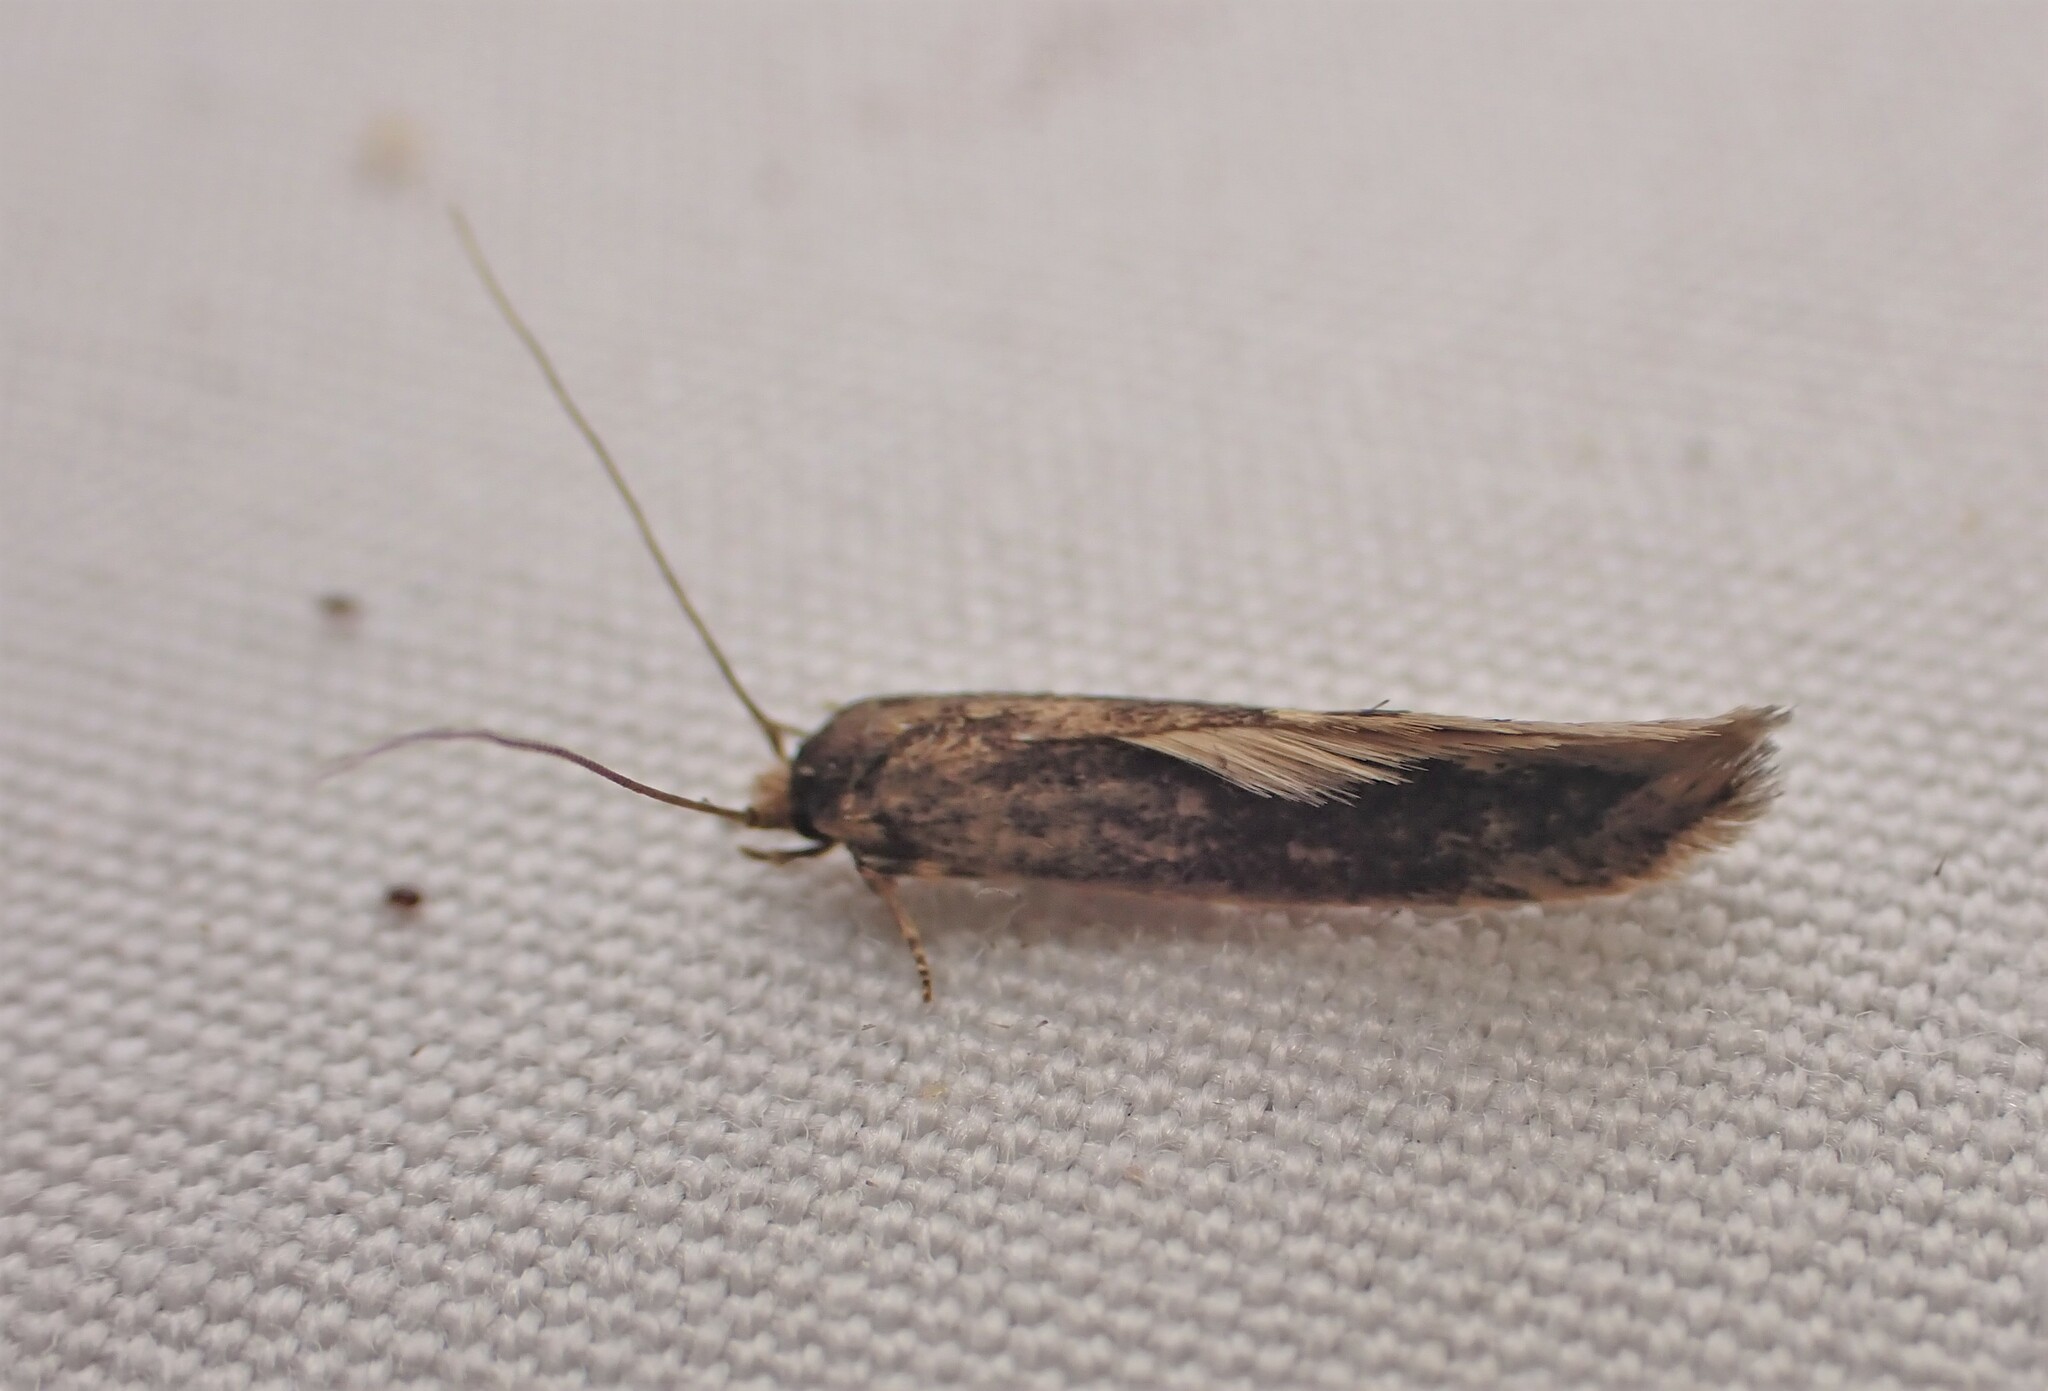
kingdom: Animalia
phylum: Arthropoda
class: Insecta
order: Lepidoptera
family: Tineidae
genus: Opogona
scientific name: Opogona omoscopa
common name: Moth
